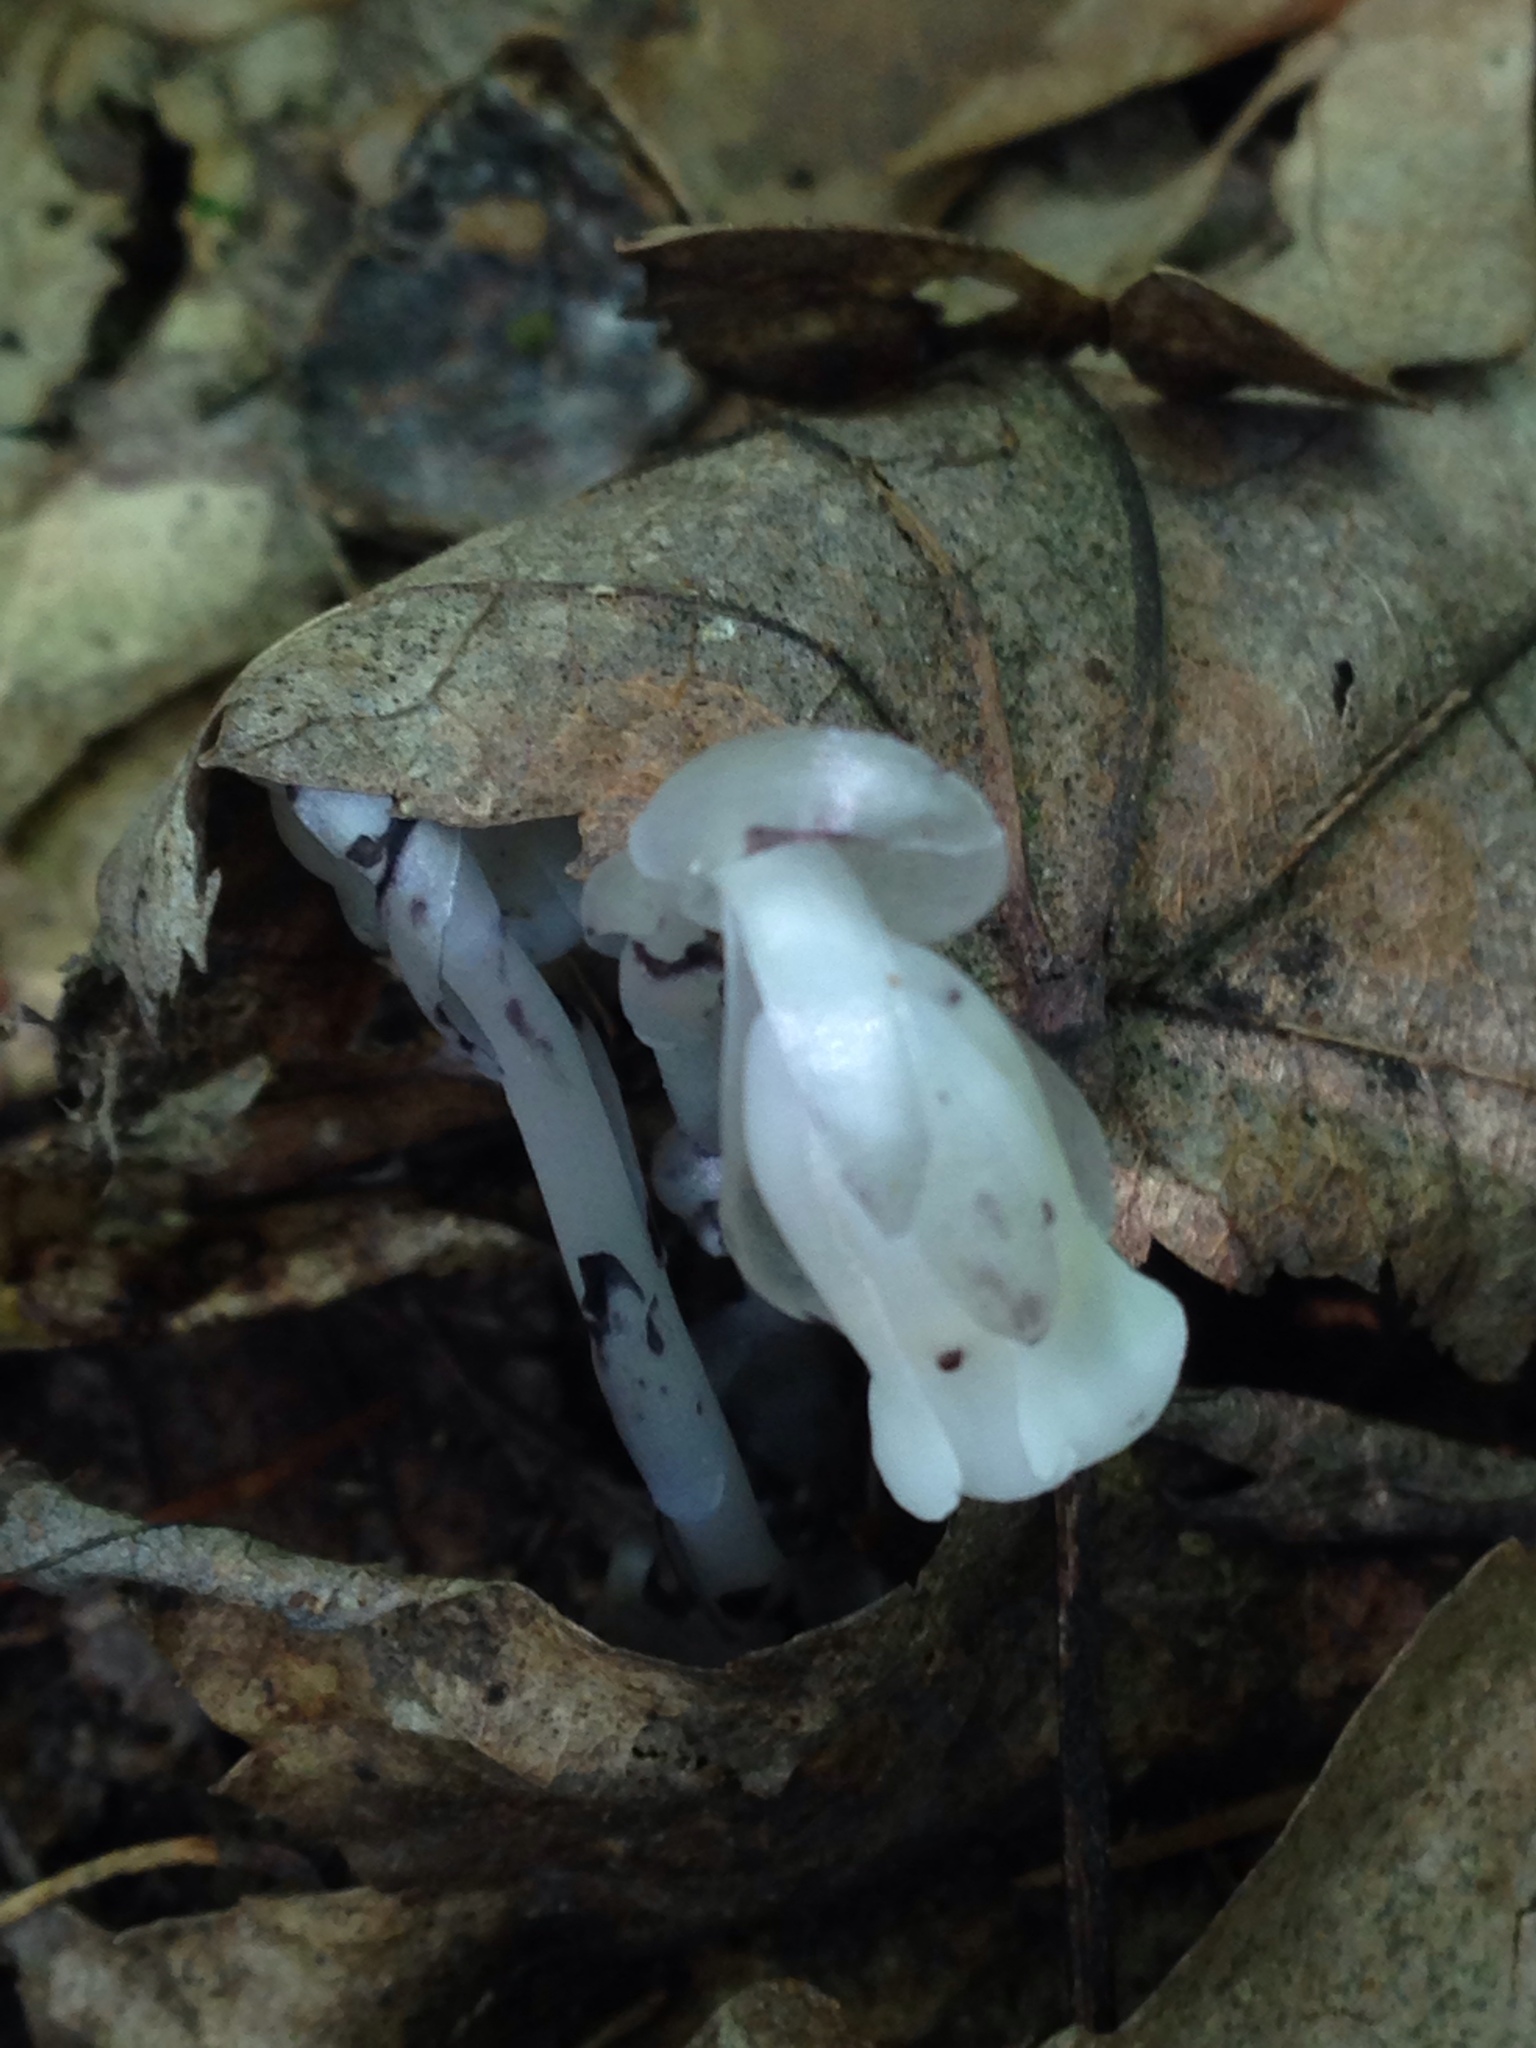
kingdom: Plantae
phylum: Tracheophyta
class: Magnoliopsida
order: Ericales
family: Ericaceae
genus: Monotropa
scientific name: Monotropa uniflora
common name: Convulsion root
